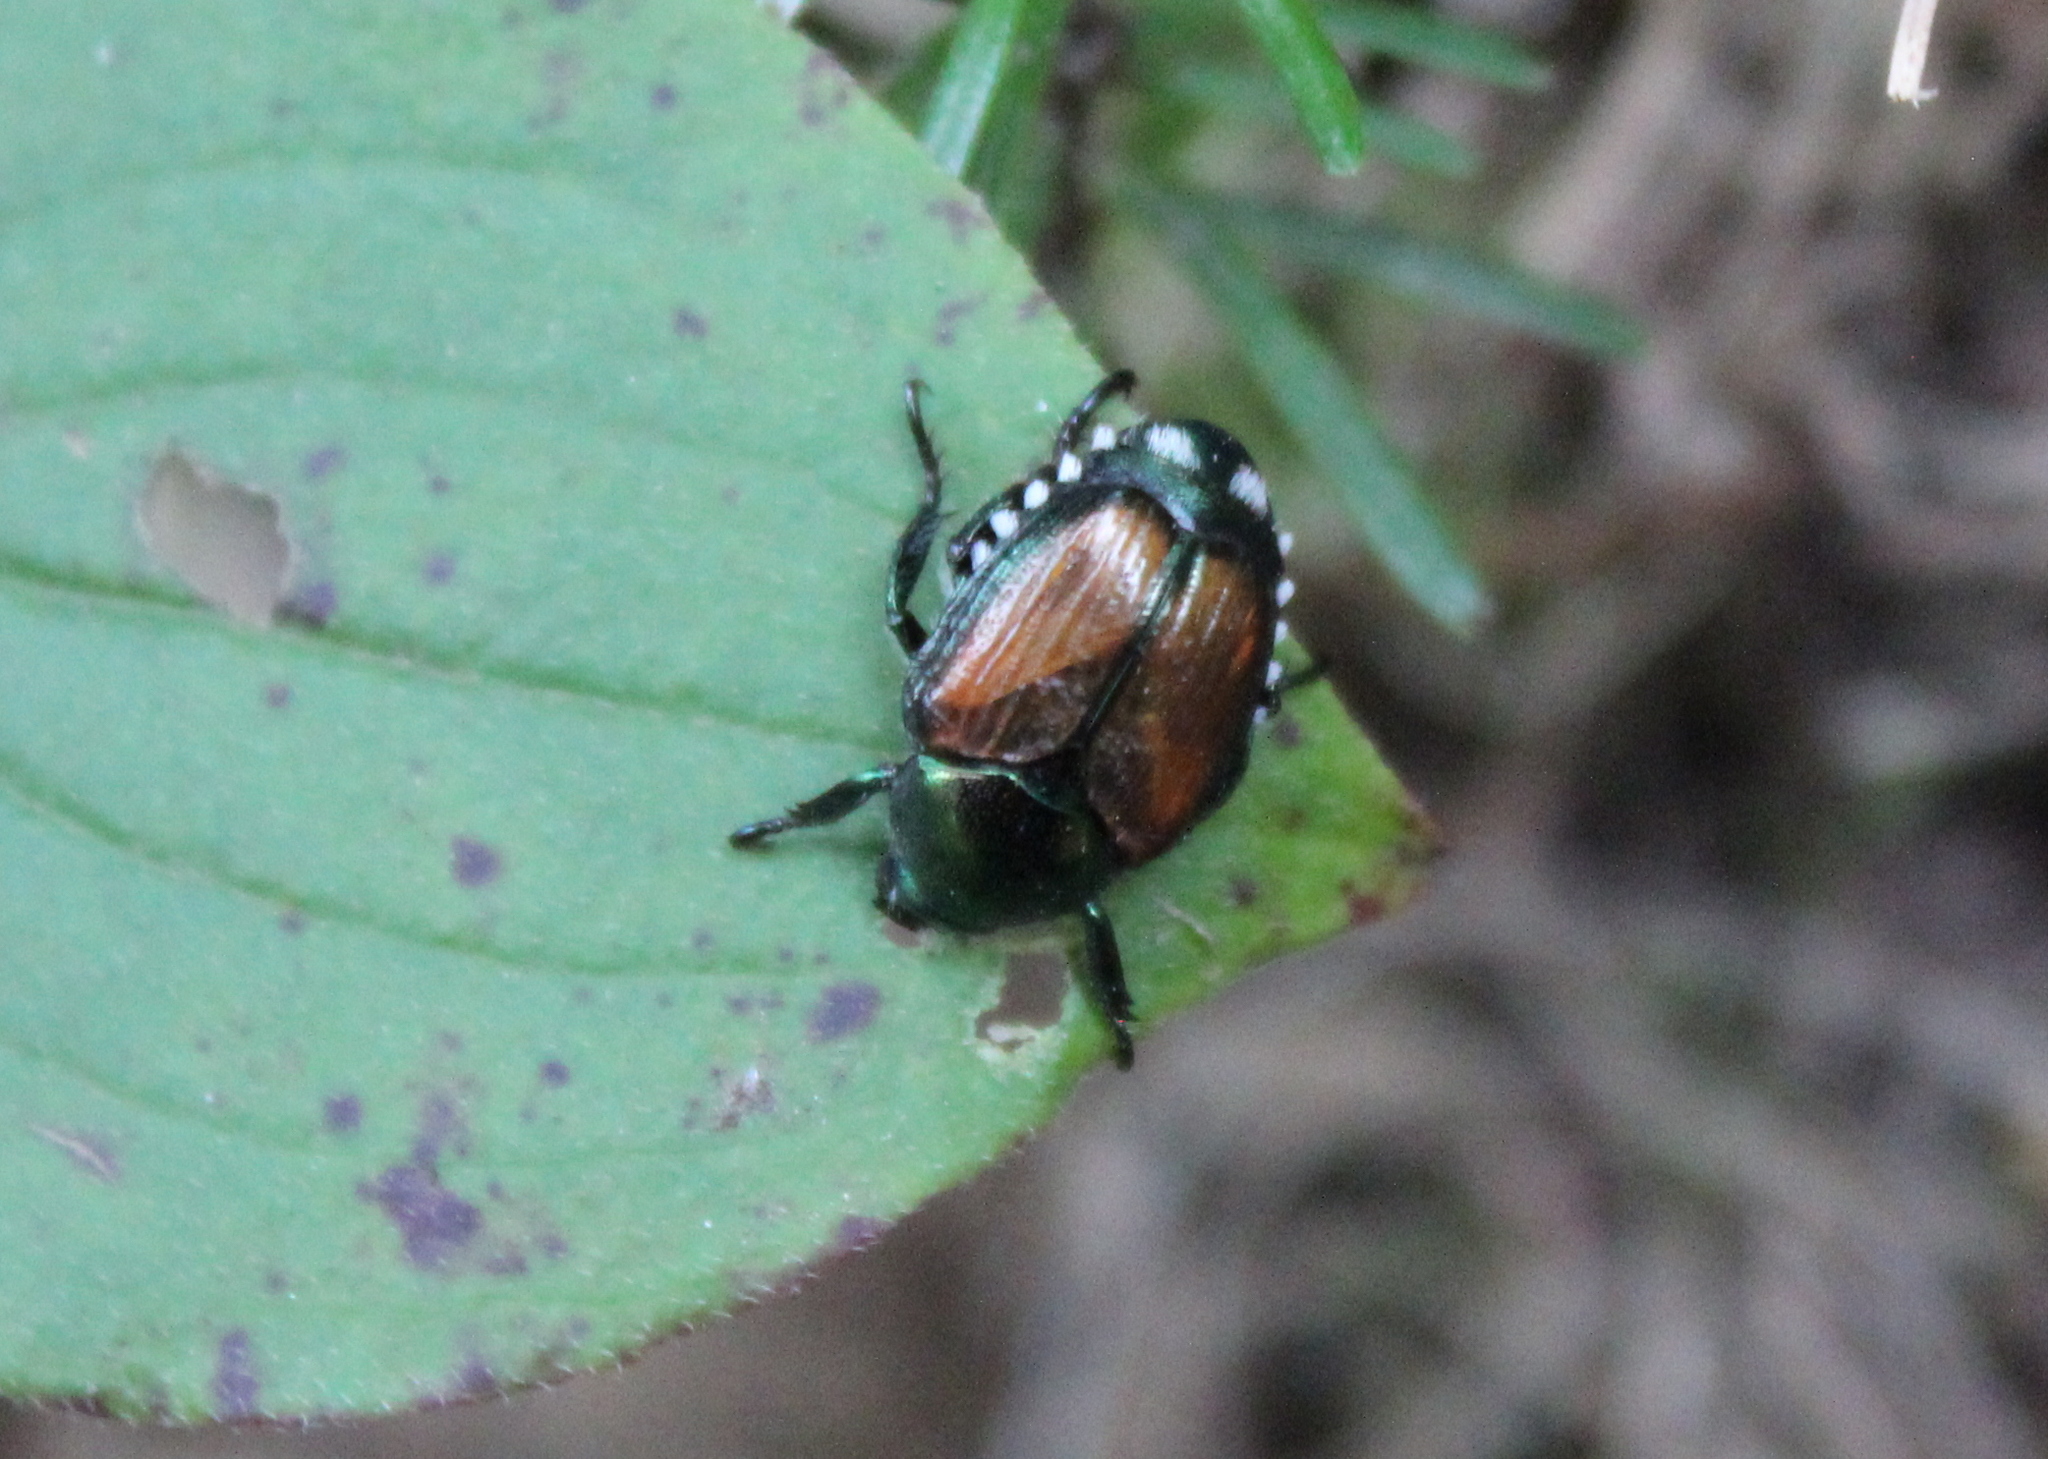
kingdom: Animalia
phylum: Arthropoda
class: Insecta
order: Coleoptera
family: Scarabaeidae
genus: Popillia
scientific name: Popillia japonica
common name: Japanese beetle
